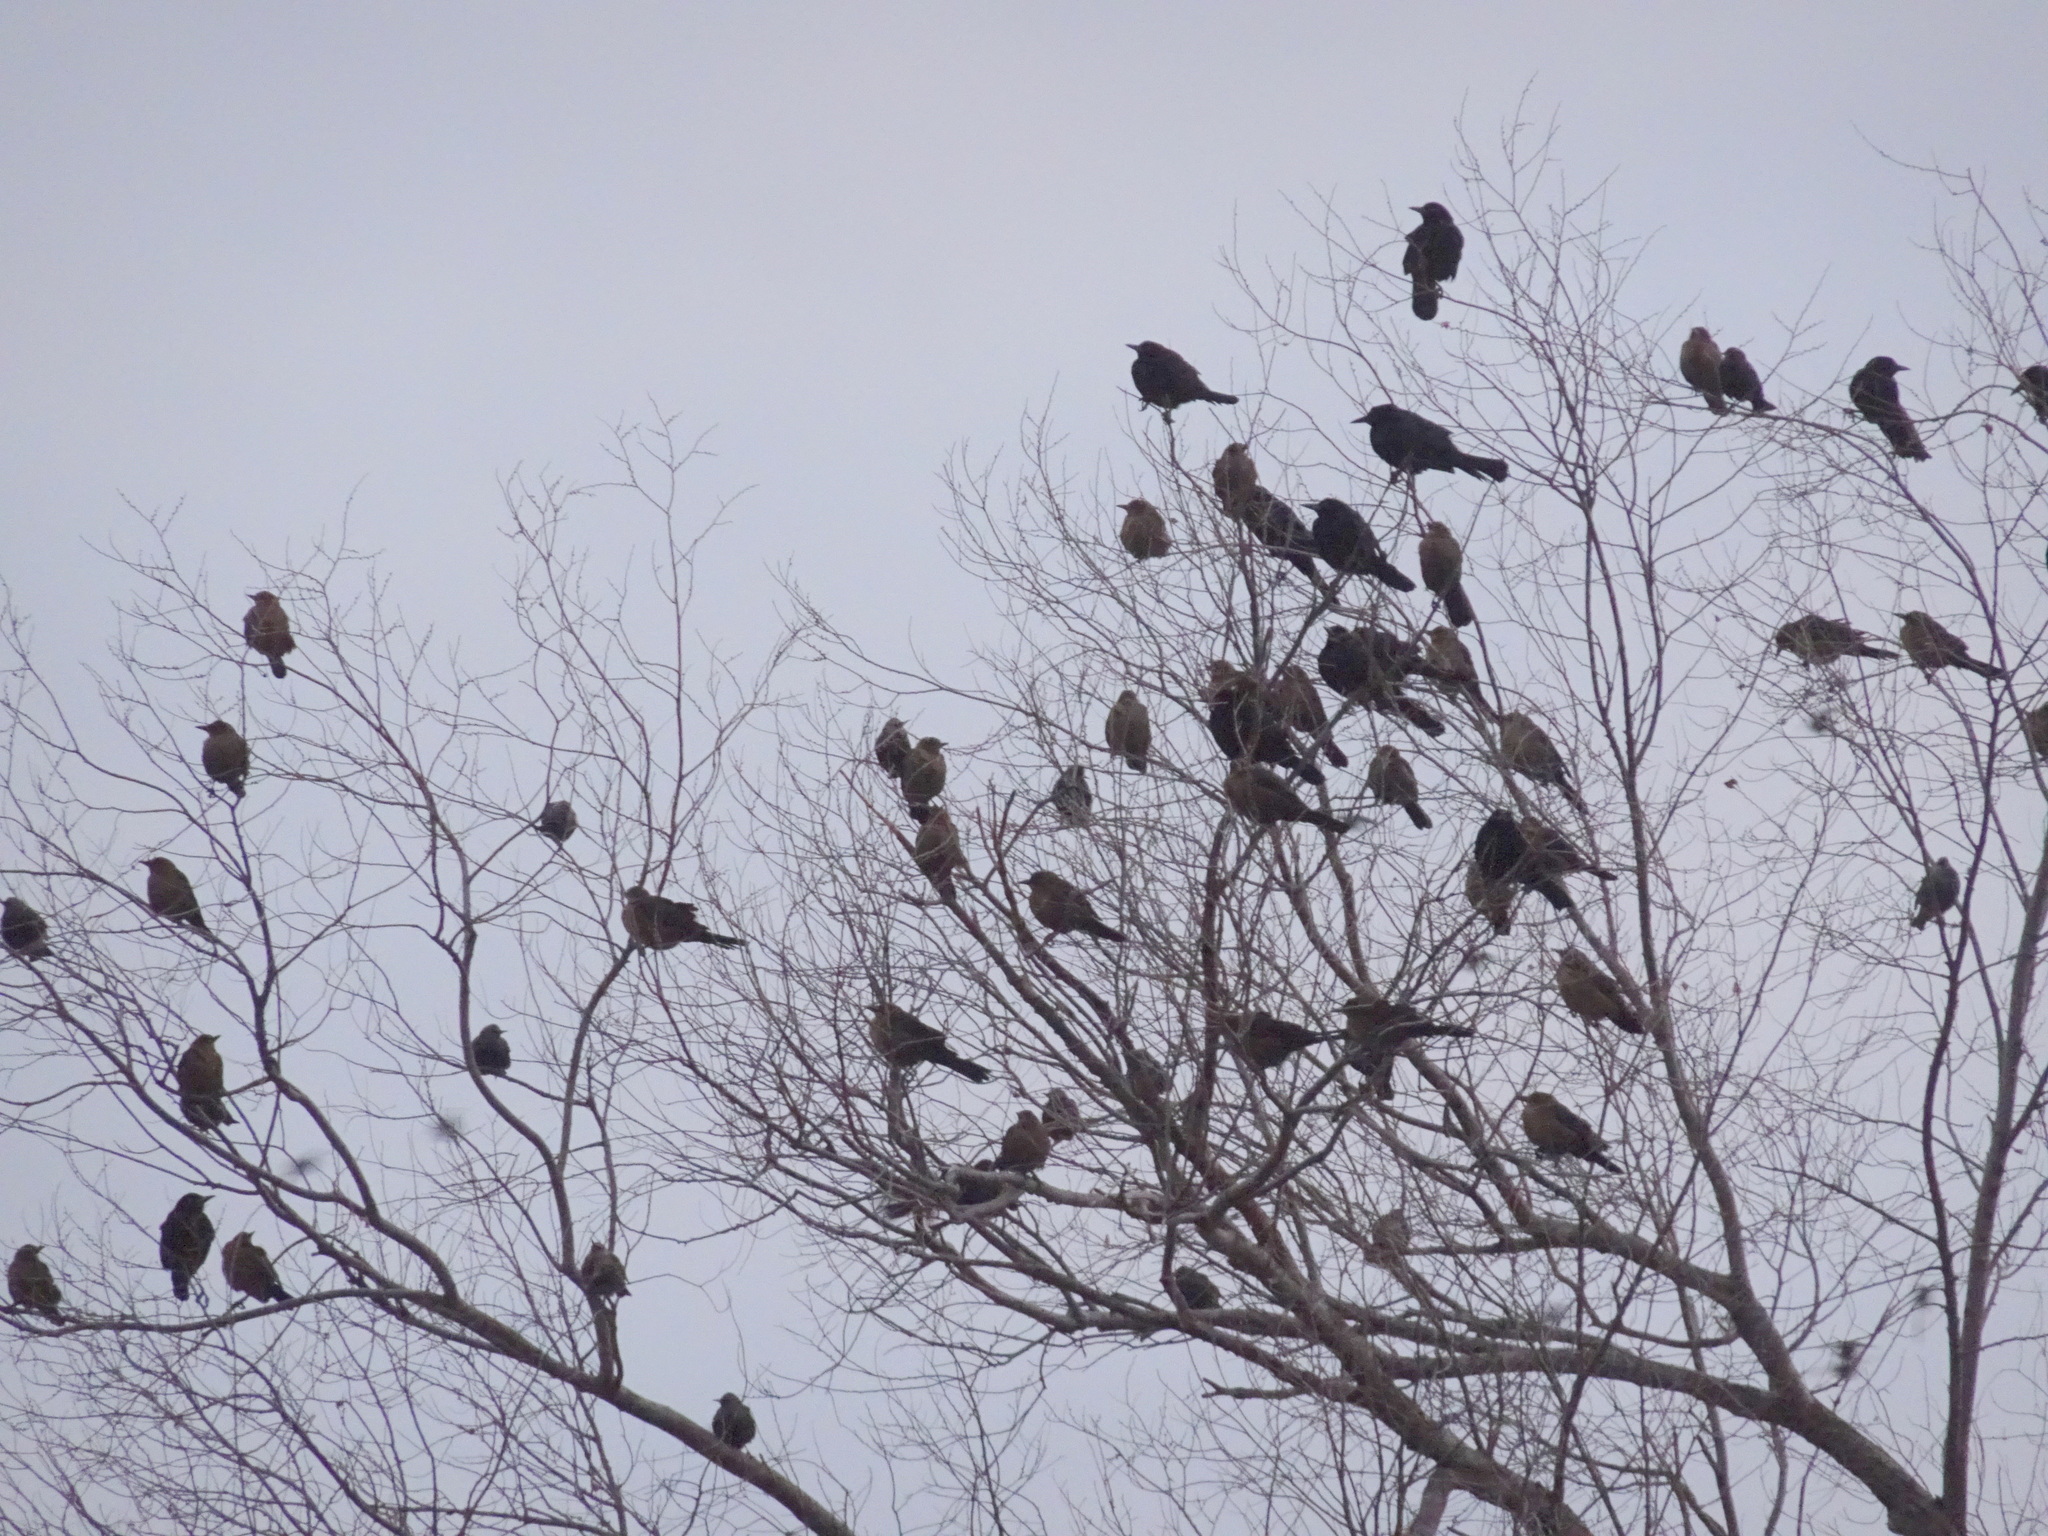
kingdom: Animalia
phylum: Chordata
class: Aves
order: Passeriformes
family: Icteridae
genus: Quiscalus
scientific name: Quiscalus mexicanus
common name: Great-tailed grackle
